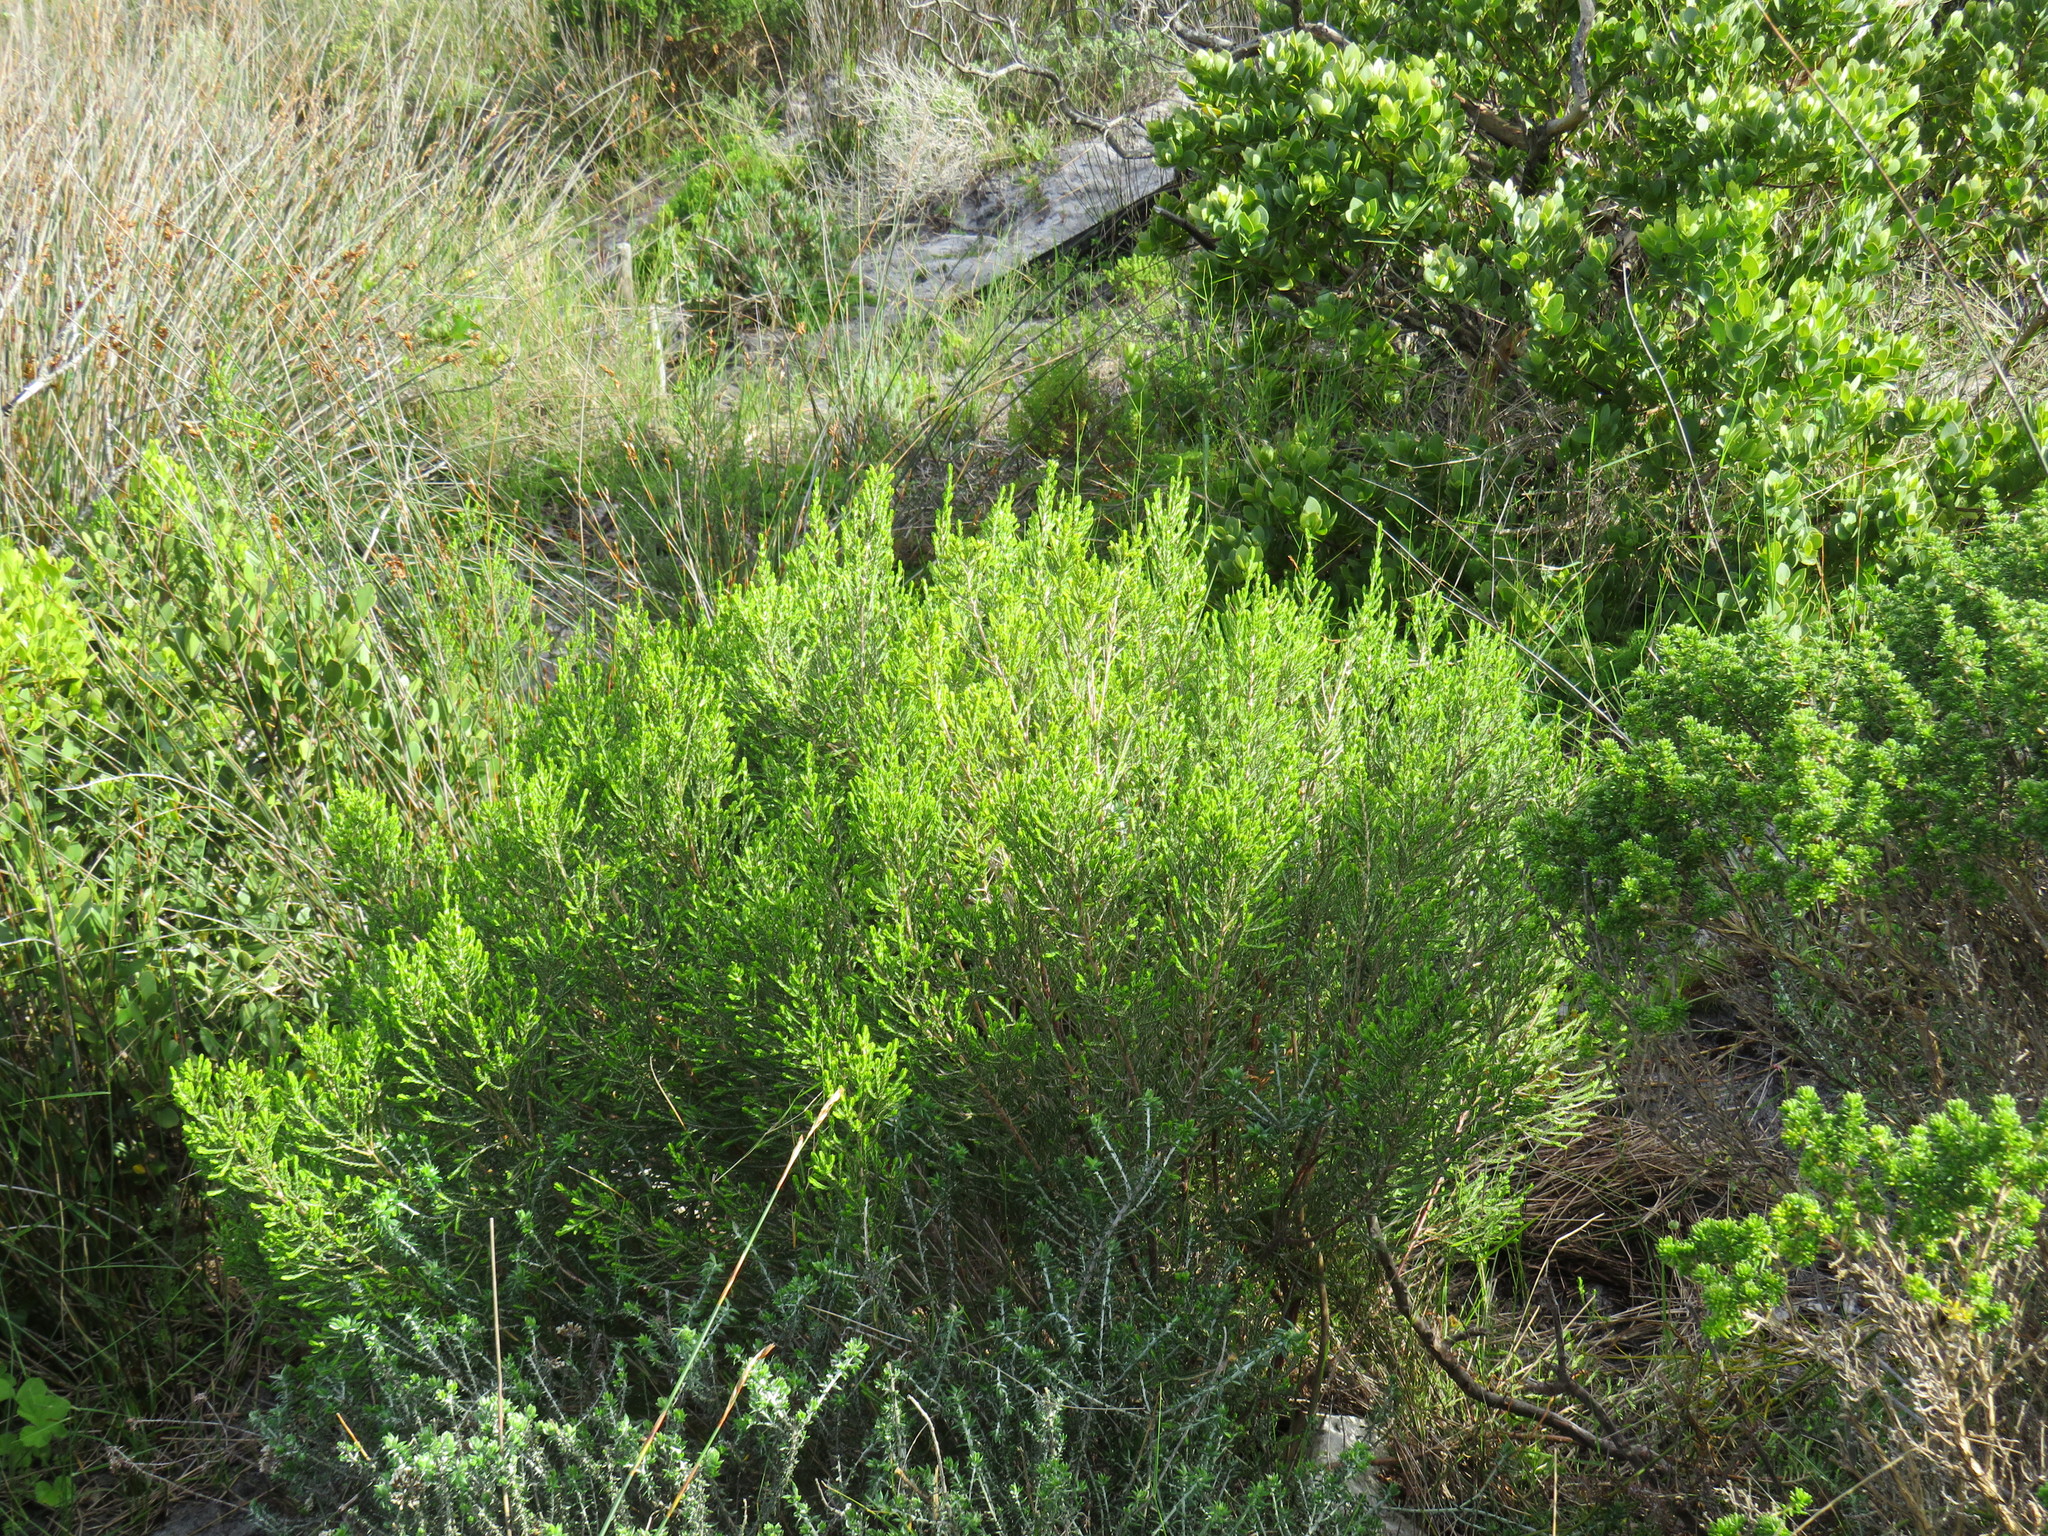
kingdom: Plantae
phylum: Tracheophyta
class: Magnoliopsida
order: Malvales
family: Thymelaeaceae
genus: Passerina
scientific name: Passerina corymbosa
